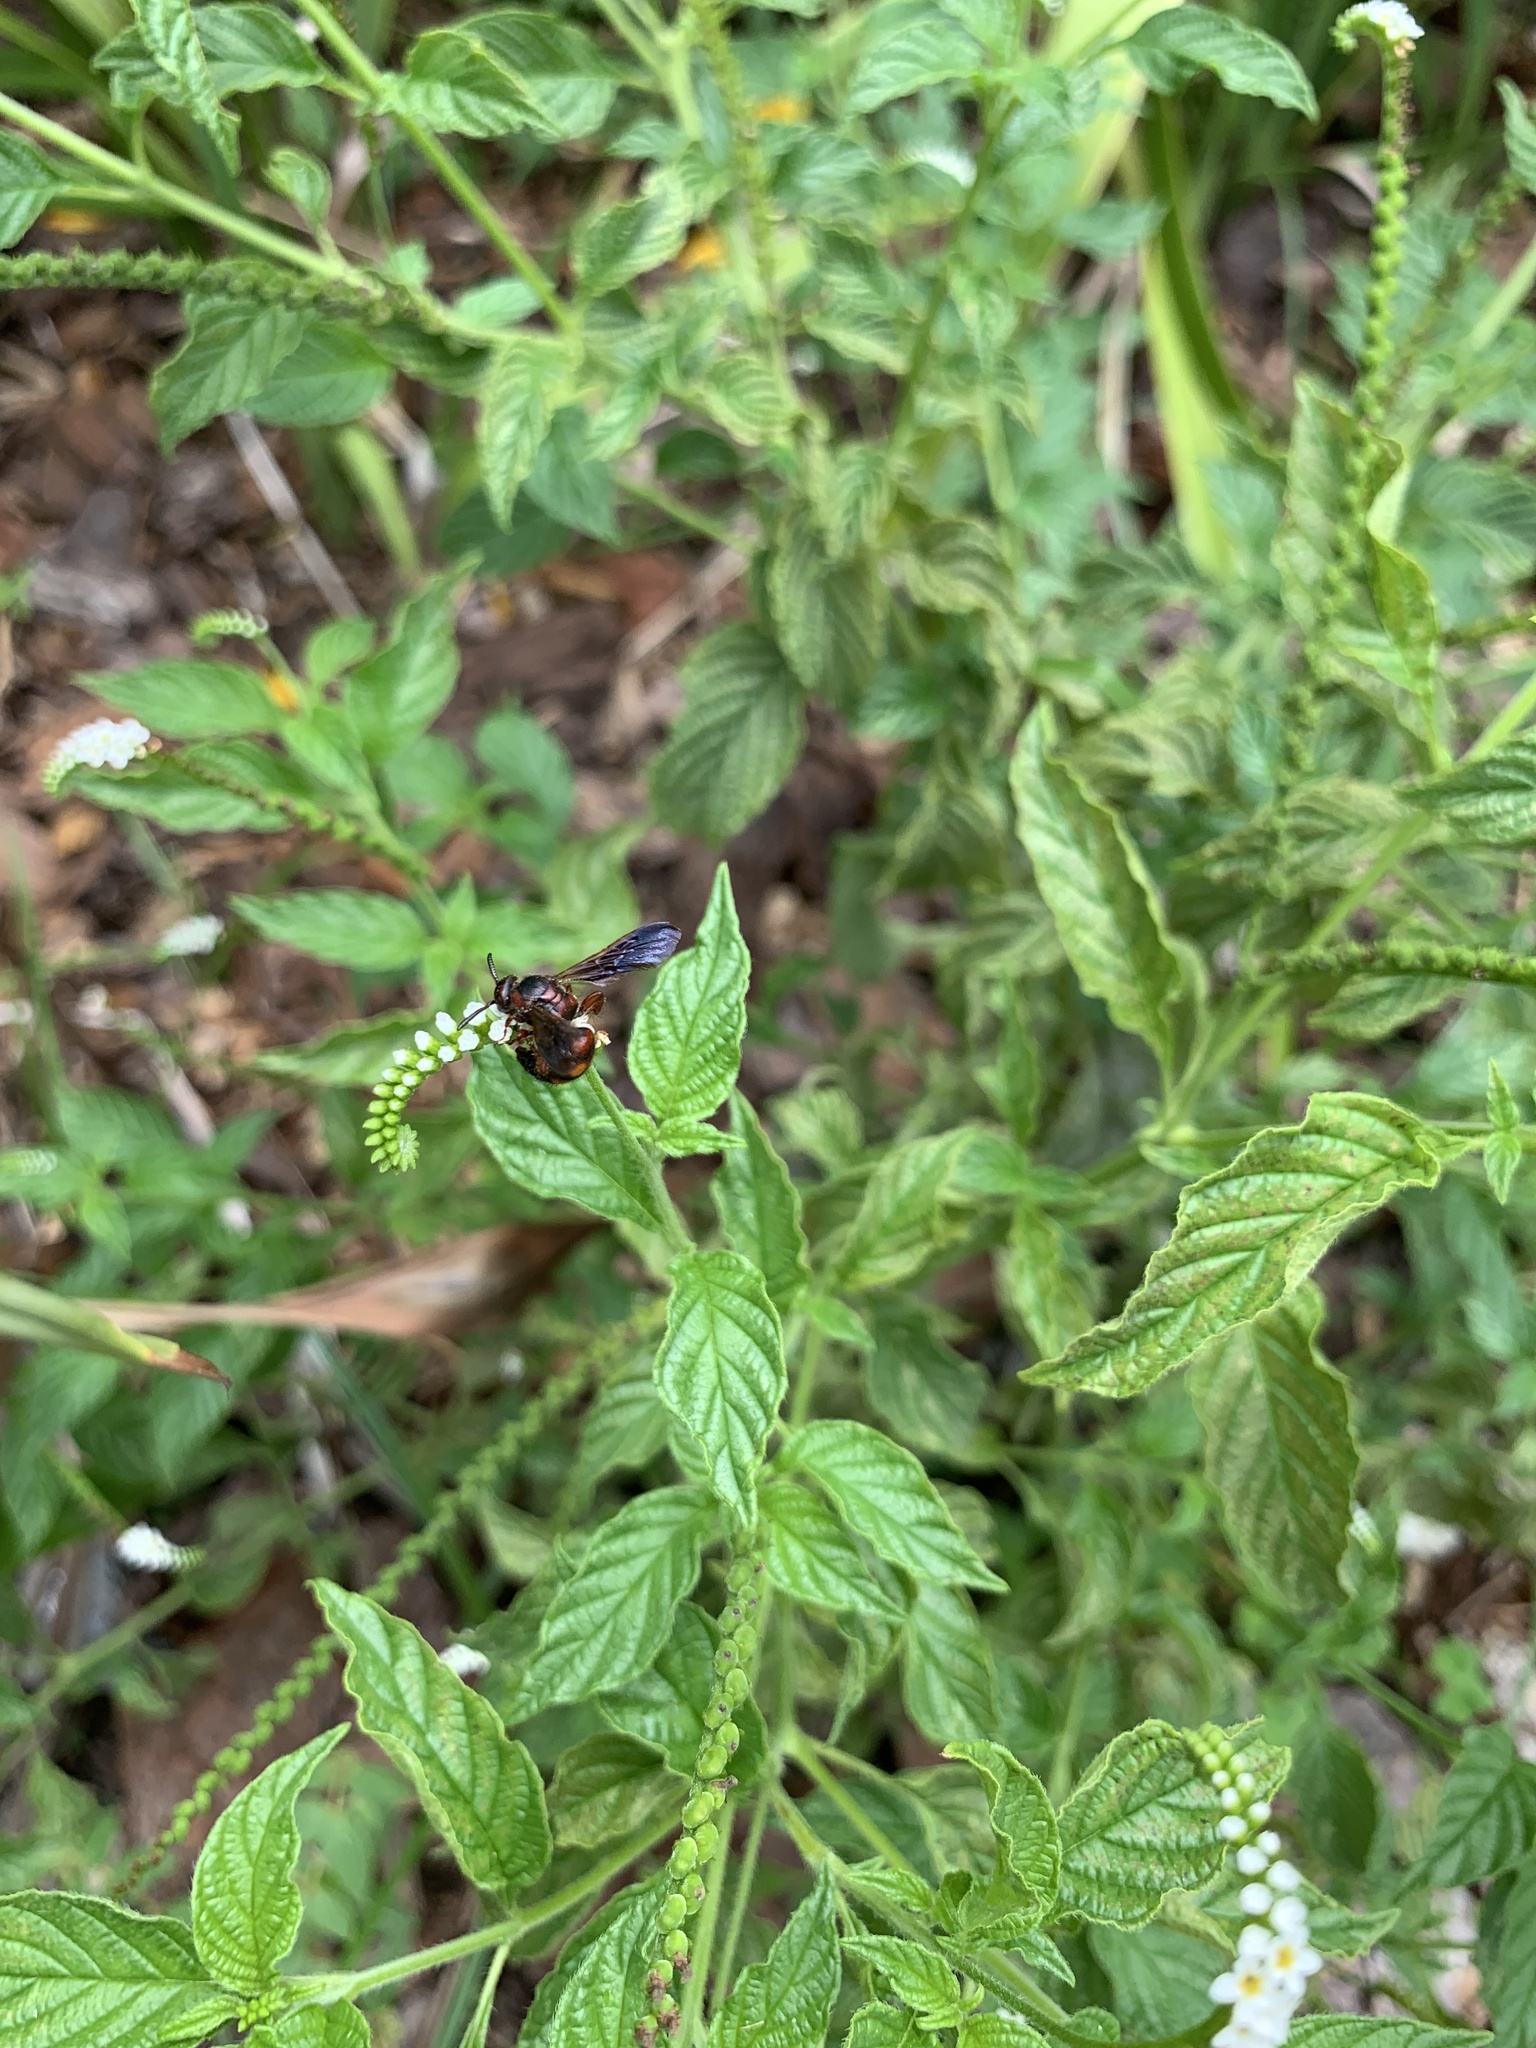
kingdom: Animalia
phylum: Arthropoda
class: Insecta
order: Hymenoptera
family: Scoliidae
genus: Scolia
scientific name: Scolia nobilitata
